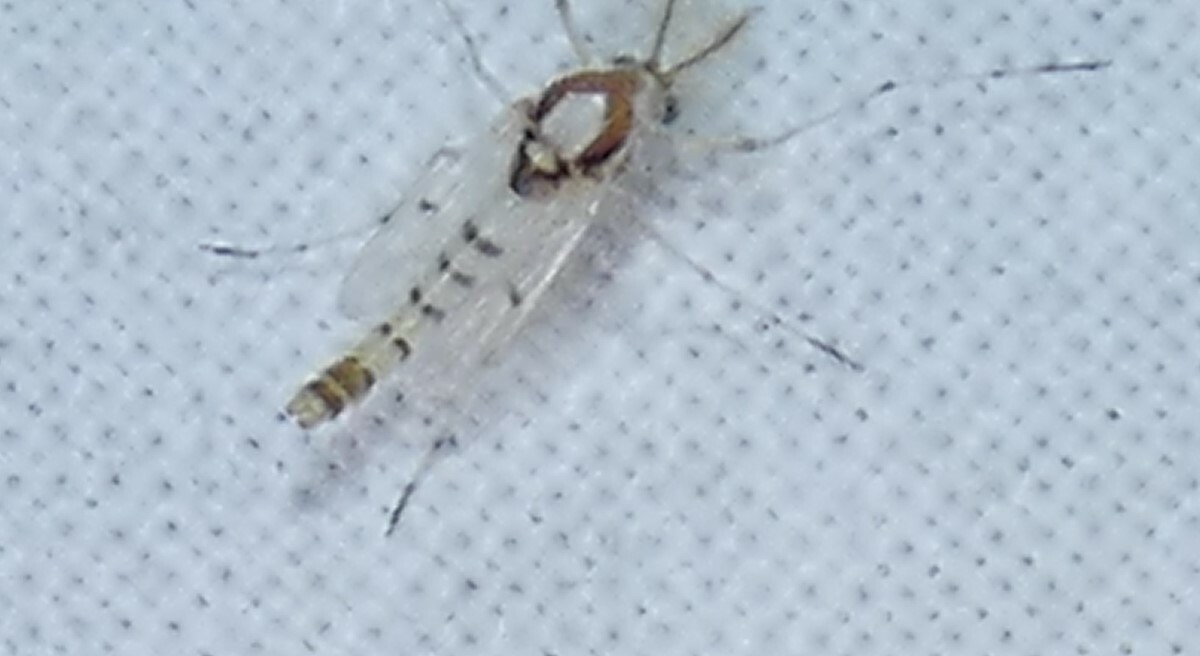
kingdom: Animalia
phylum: Arthropoda
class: Insecta
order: Diptera
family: Chironomidae
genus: Coelotanypus
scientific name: Coelotanypus concinnus
